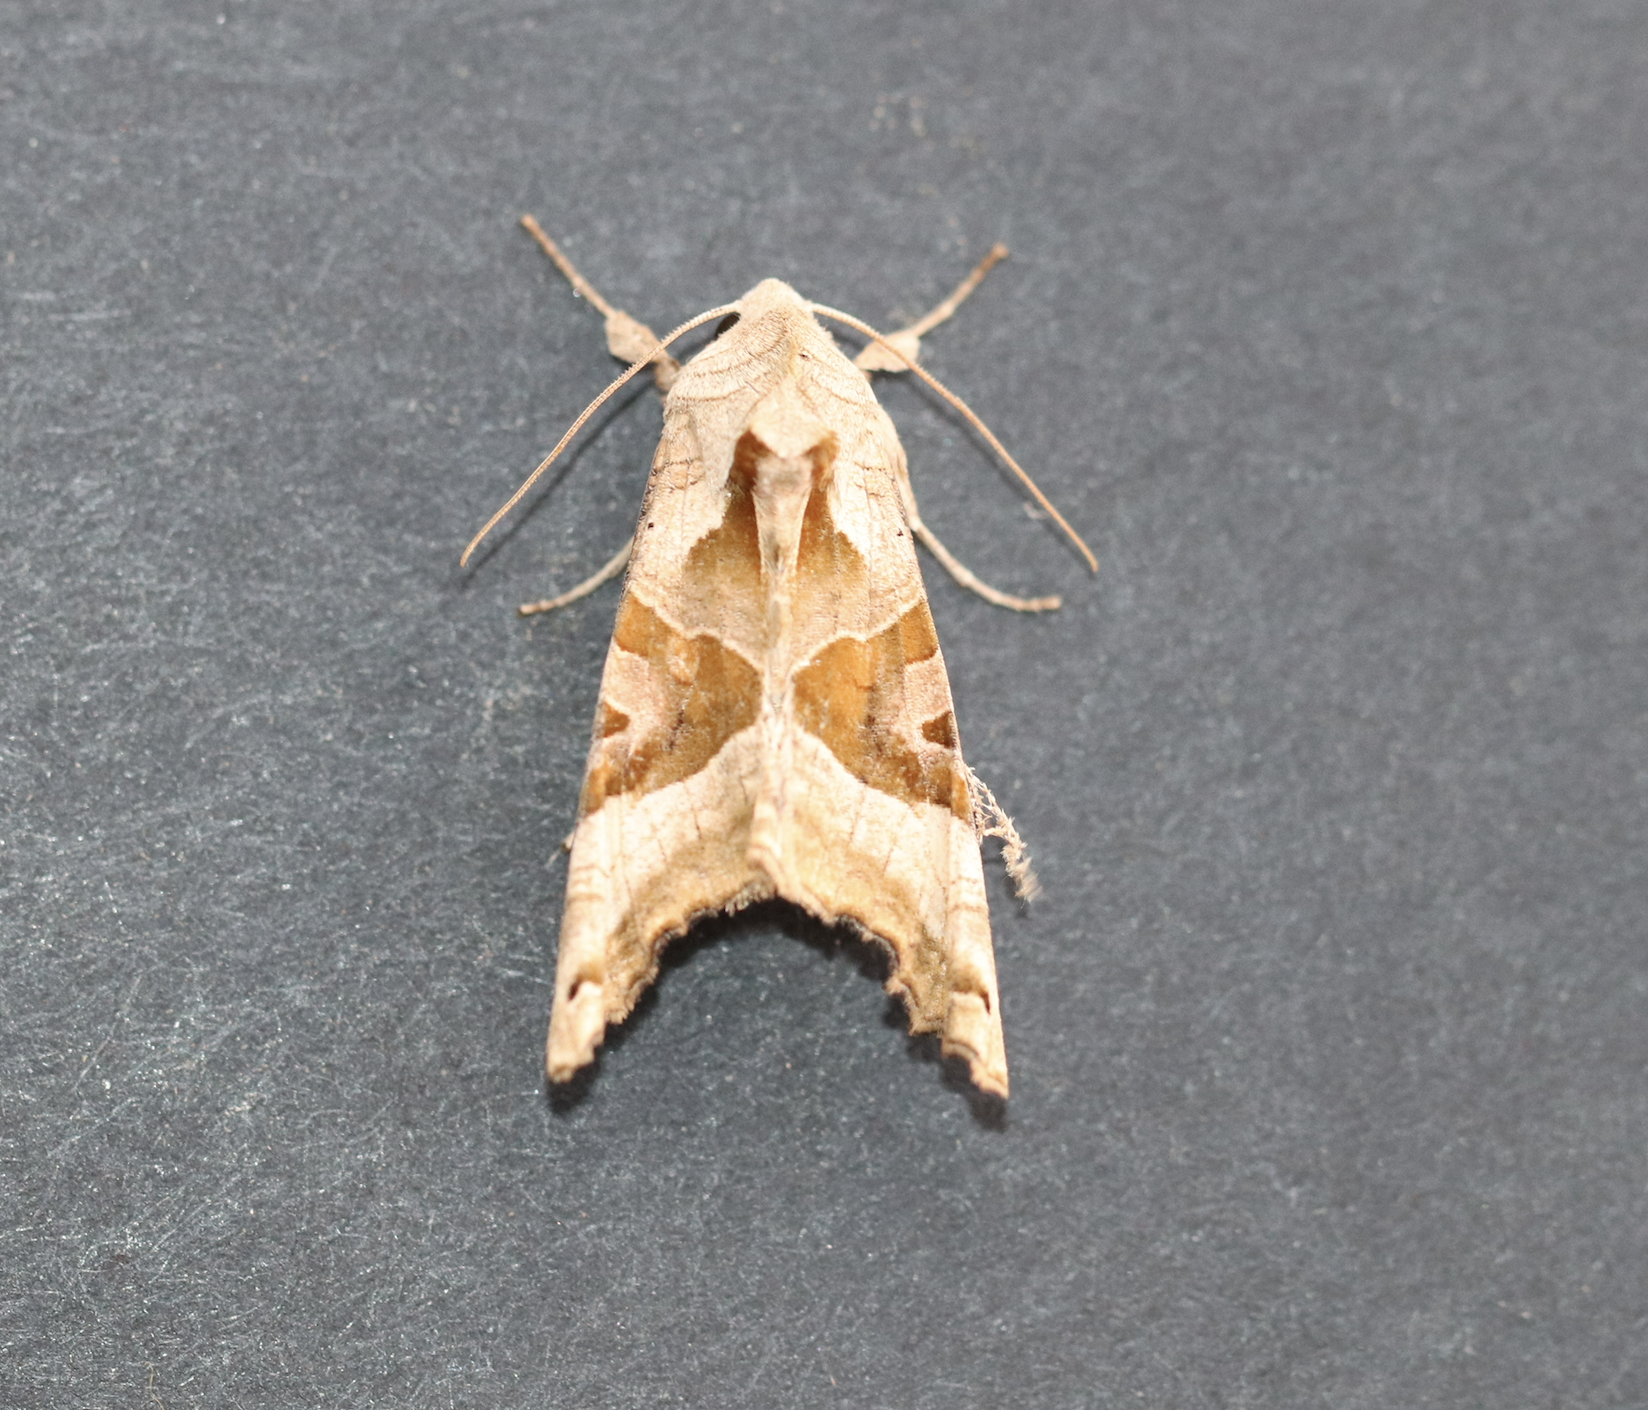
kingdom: Animalia
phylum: Arthropoda
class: Insecta
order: Lepidoptera
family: Noctuidae
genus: Phlogophora
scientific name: Phlogophora meticulosa
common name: Angle shades
